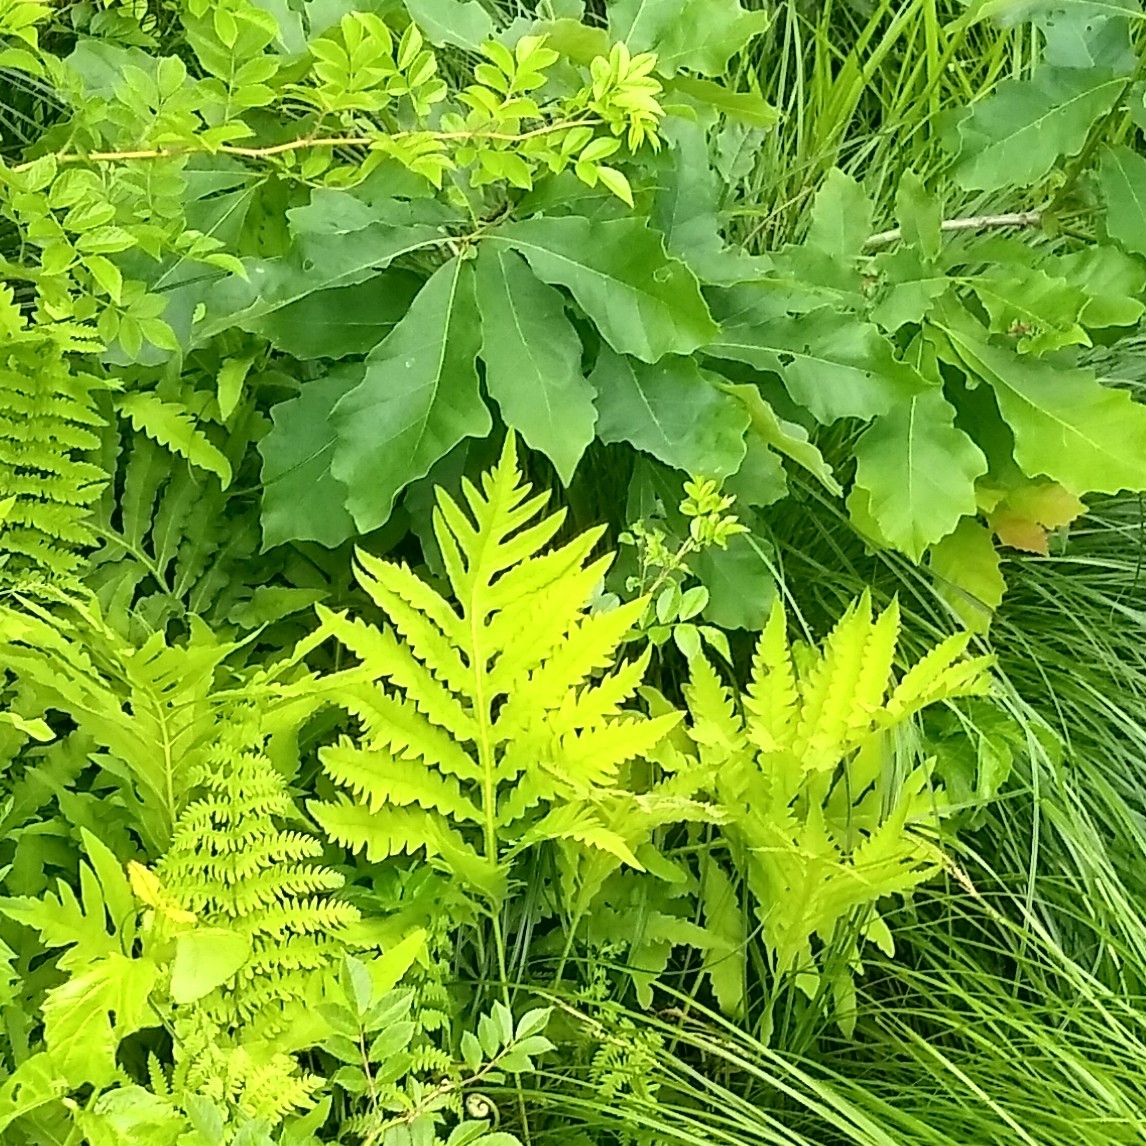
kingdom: Plantae
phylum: Tracheophyta
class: Polypodiopsida
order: Polypodiales
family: Onocleaceae
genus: Onoclea
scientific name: Onoclea sensibilis
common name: Sensitive fern
